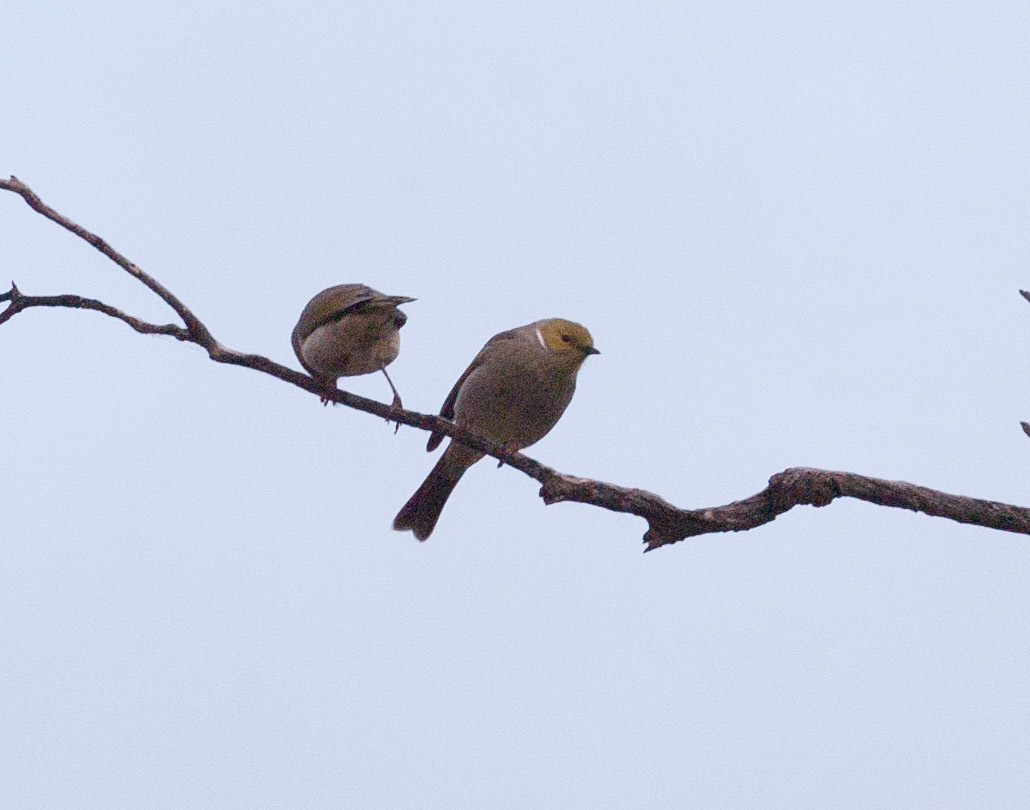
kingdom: Animalia
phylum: Chordata
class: Aves
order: Passeriformes
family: Meliphagidae
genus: Ptilotula
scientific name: Ptilotula penicillata
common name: White-plumed honeyeater
